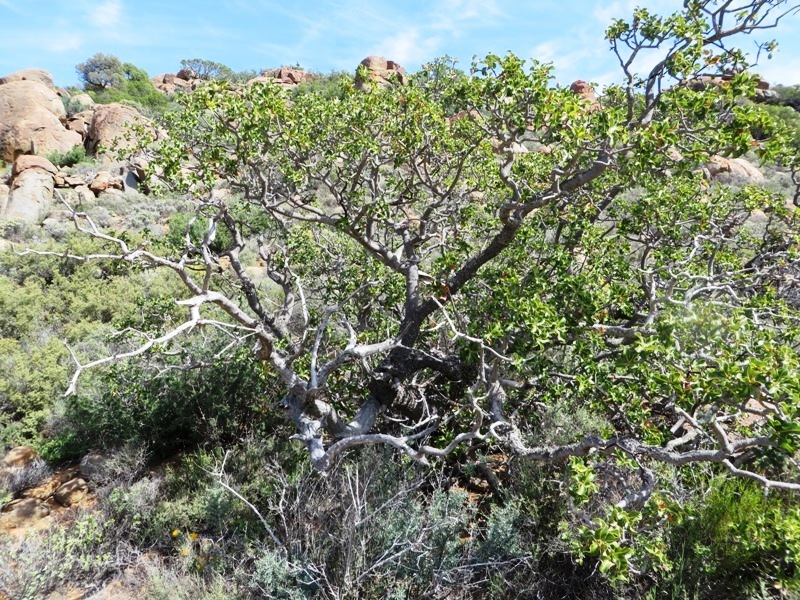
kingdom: Plantae
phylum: Tracheophyta
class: Magnoliopsida
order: Sapindales
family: Anacardiaceae
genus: Ozoroa
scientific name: Ozoroa dispar
